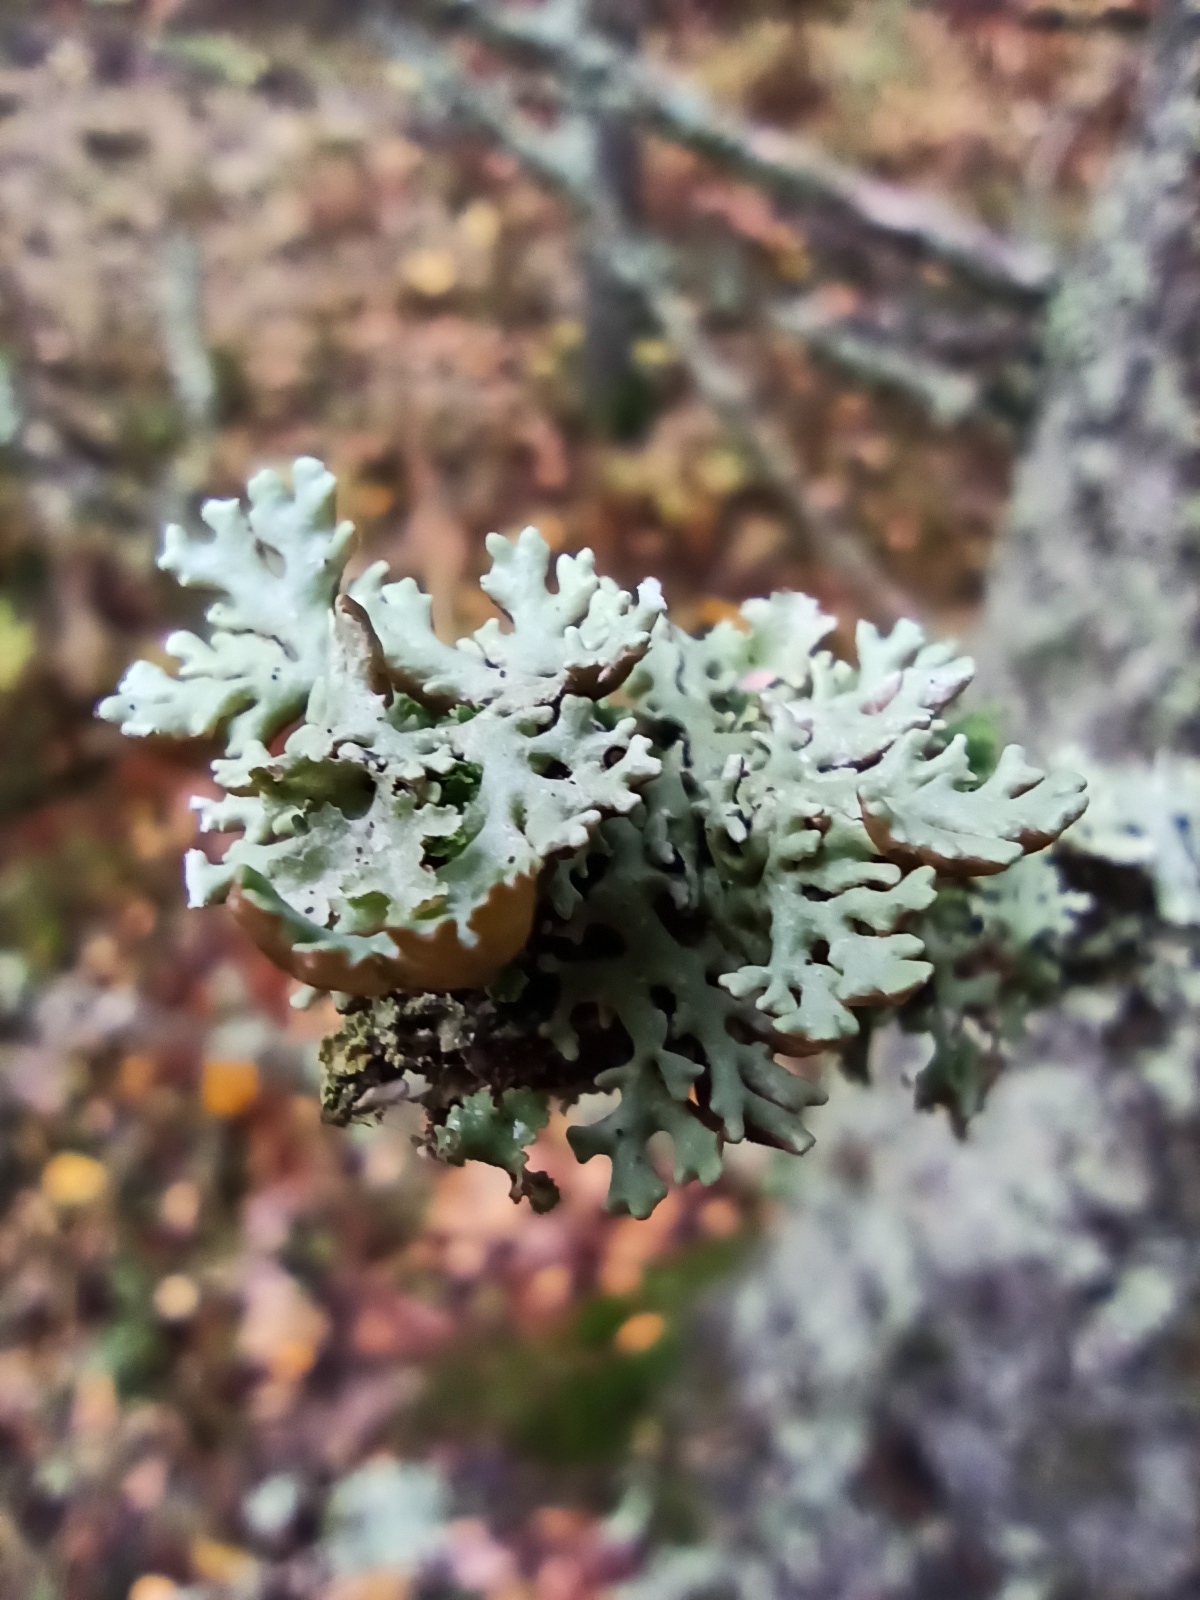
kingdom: Fungi
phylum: Ascomycota
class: Lecanoromycetes
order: Lecanorales
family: Parmeliaceae
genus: Hypogymnia
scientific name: Hypogymnia physodes
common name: Dark crottle
